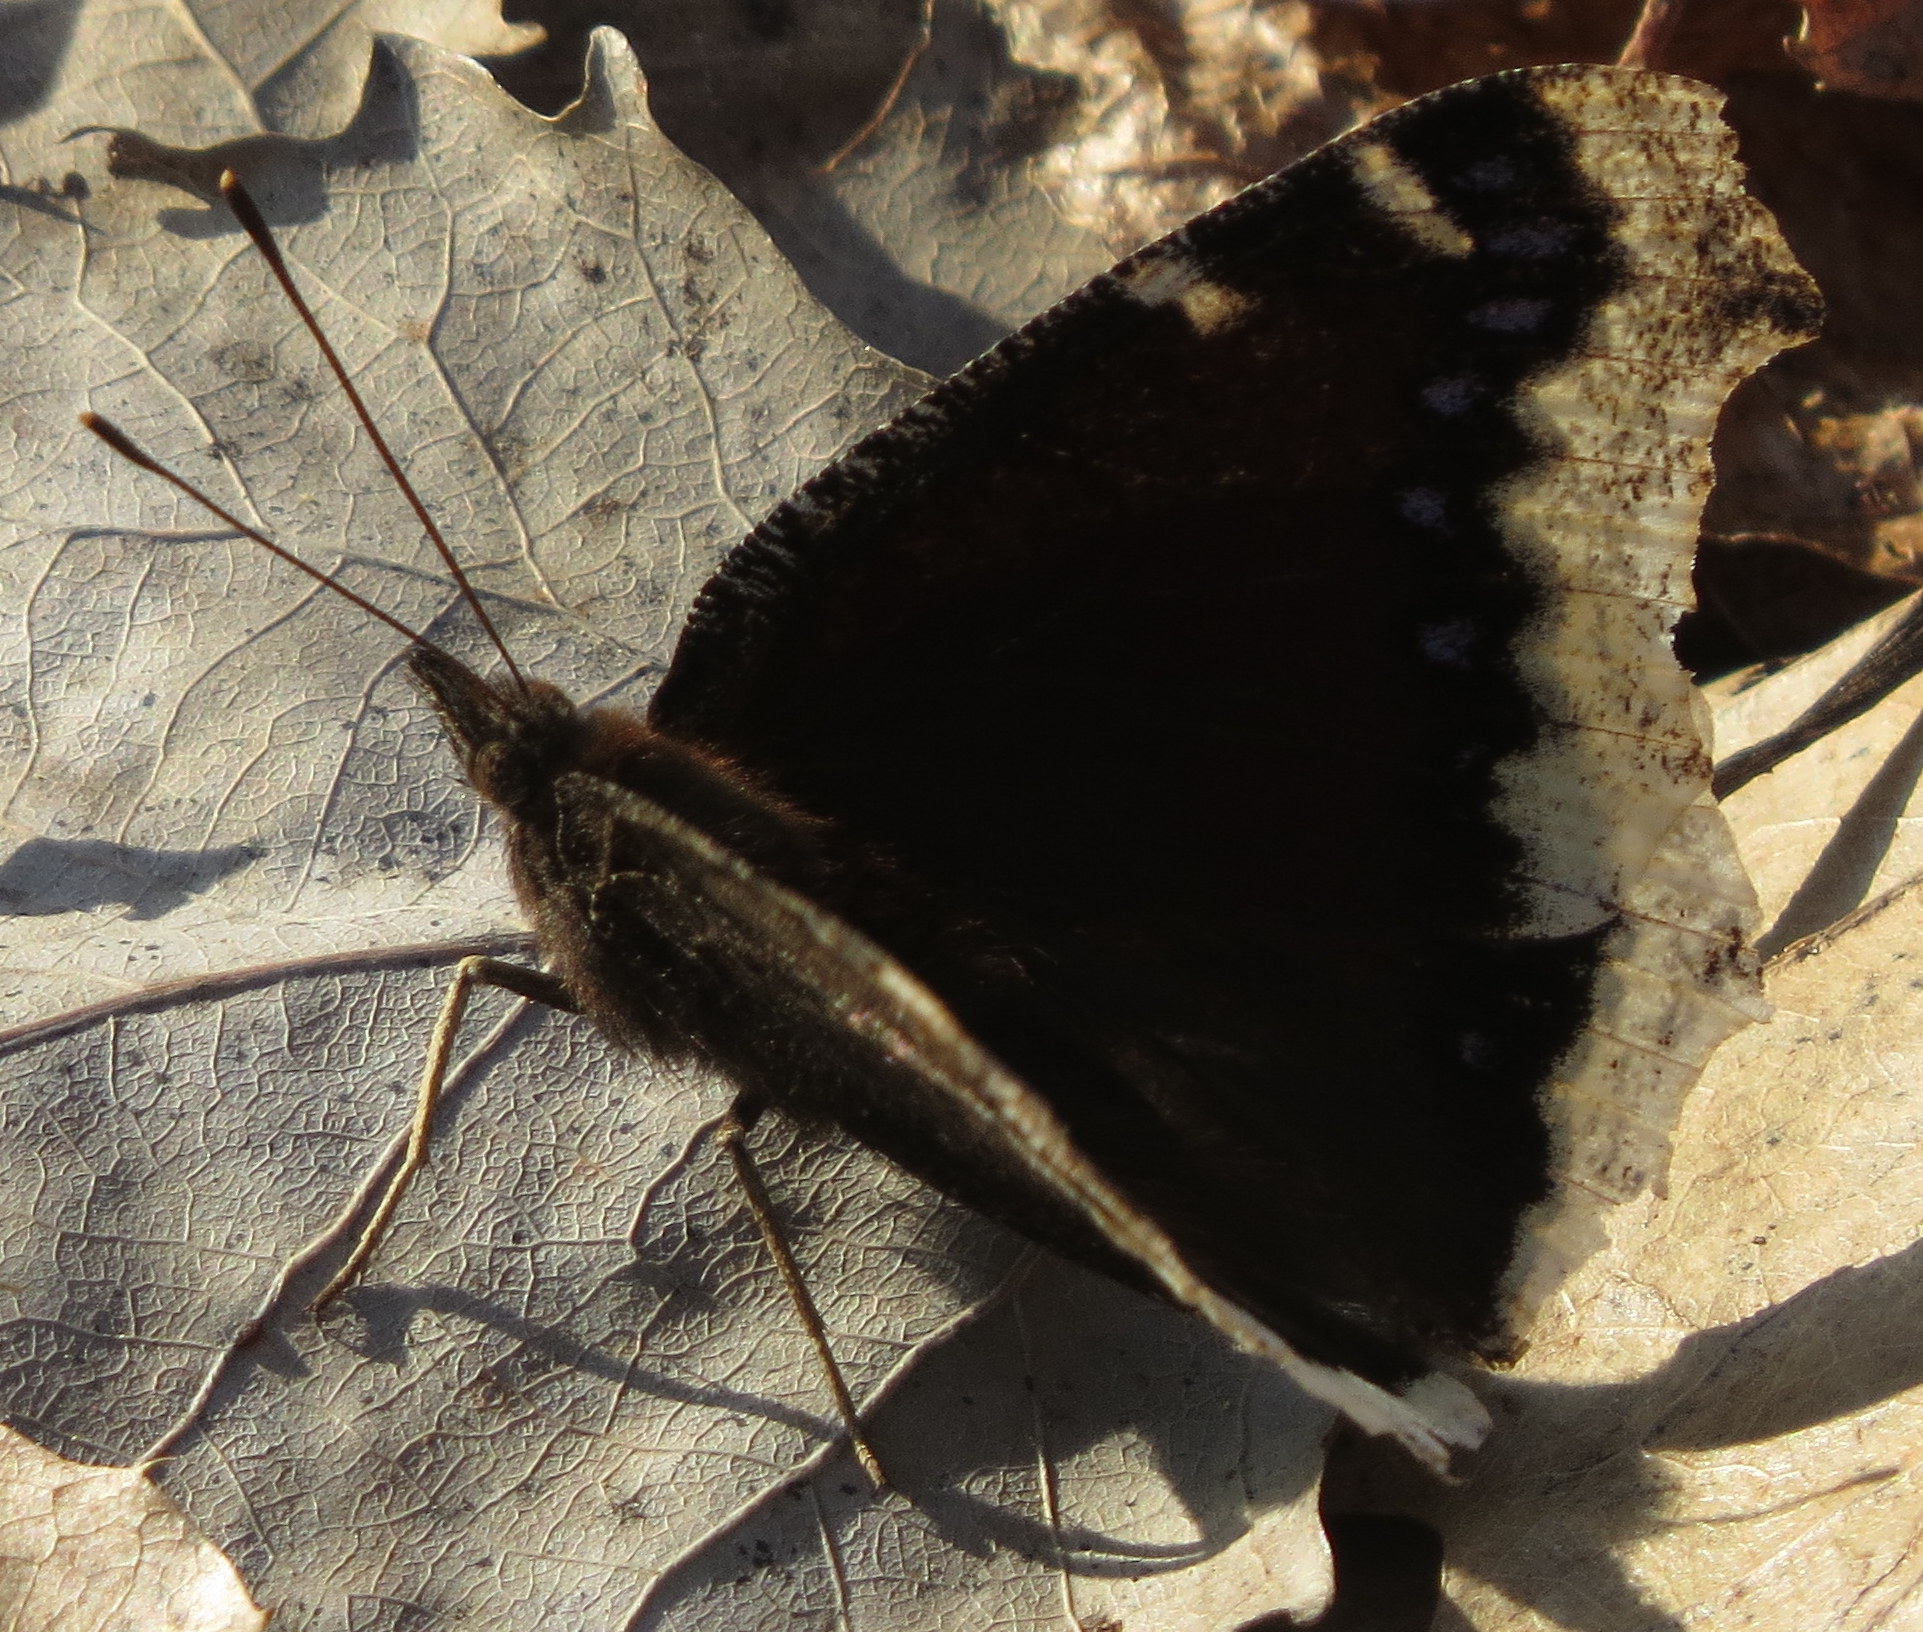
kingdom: Animalia
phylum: Arthropoda
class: Insecta
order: Lepidoptera
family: Nymphalidae
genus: Nymphalis
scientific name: Nymphalis antiopa
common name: Camberwell beauty
